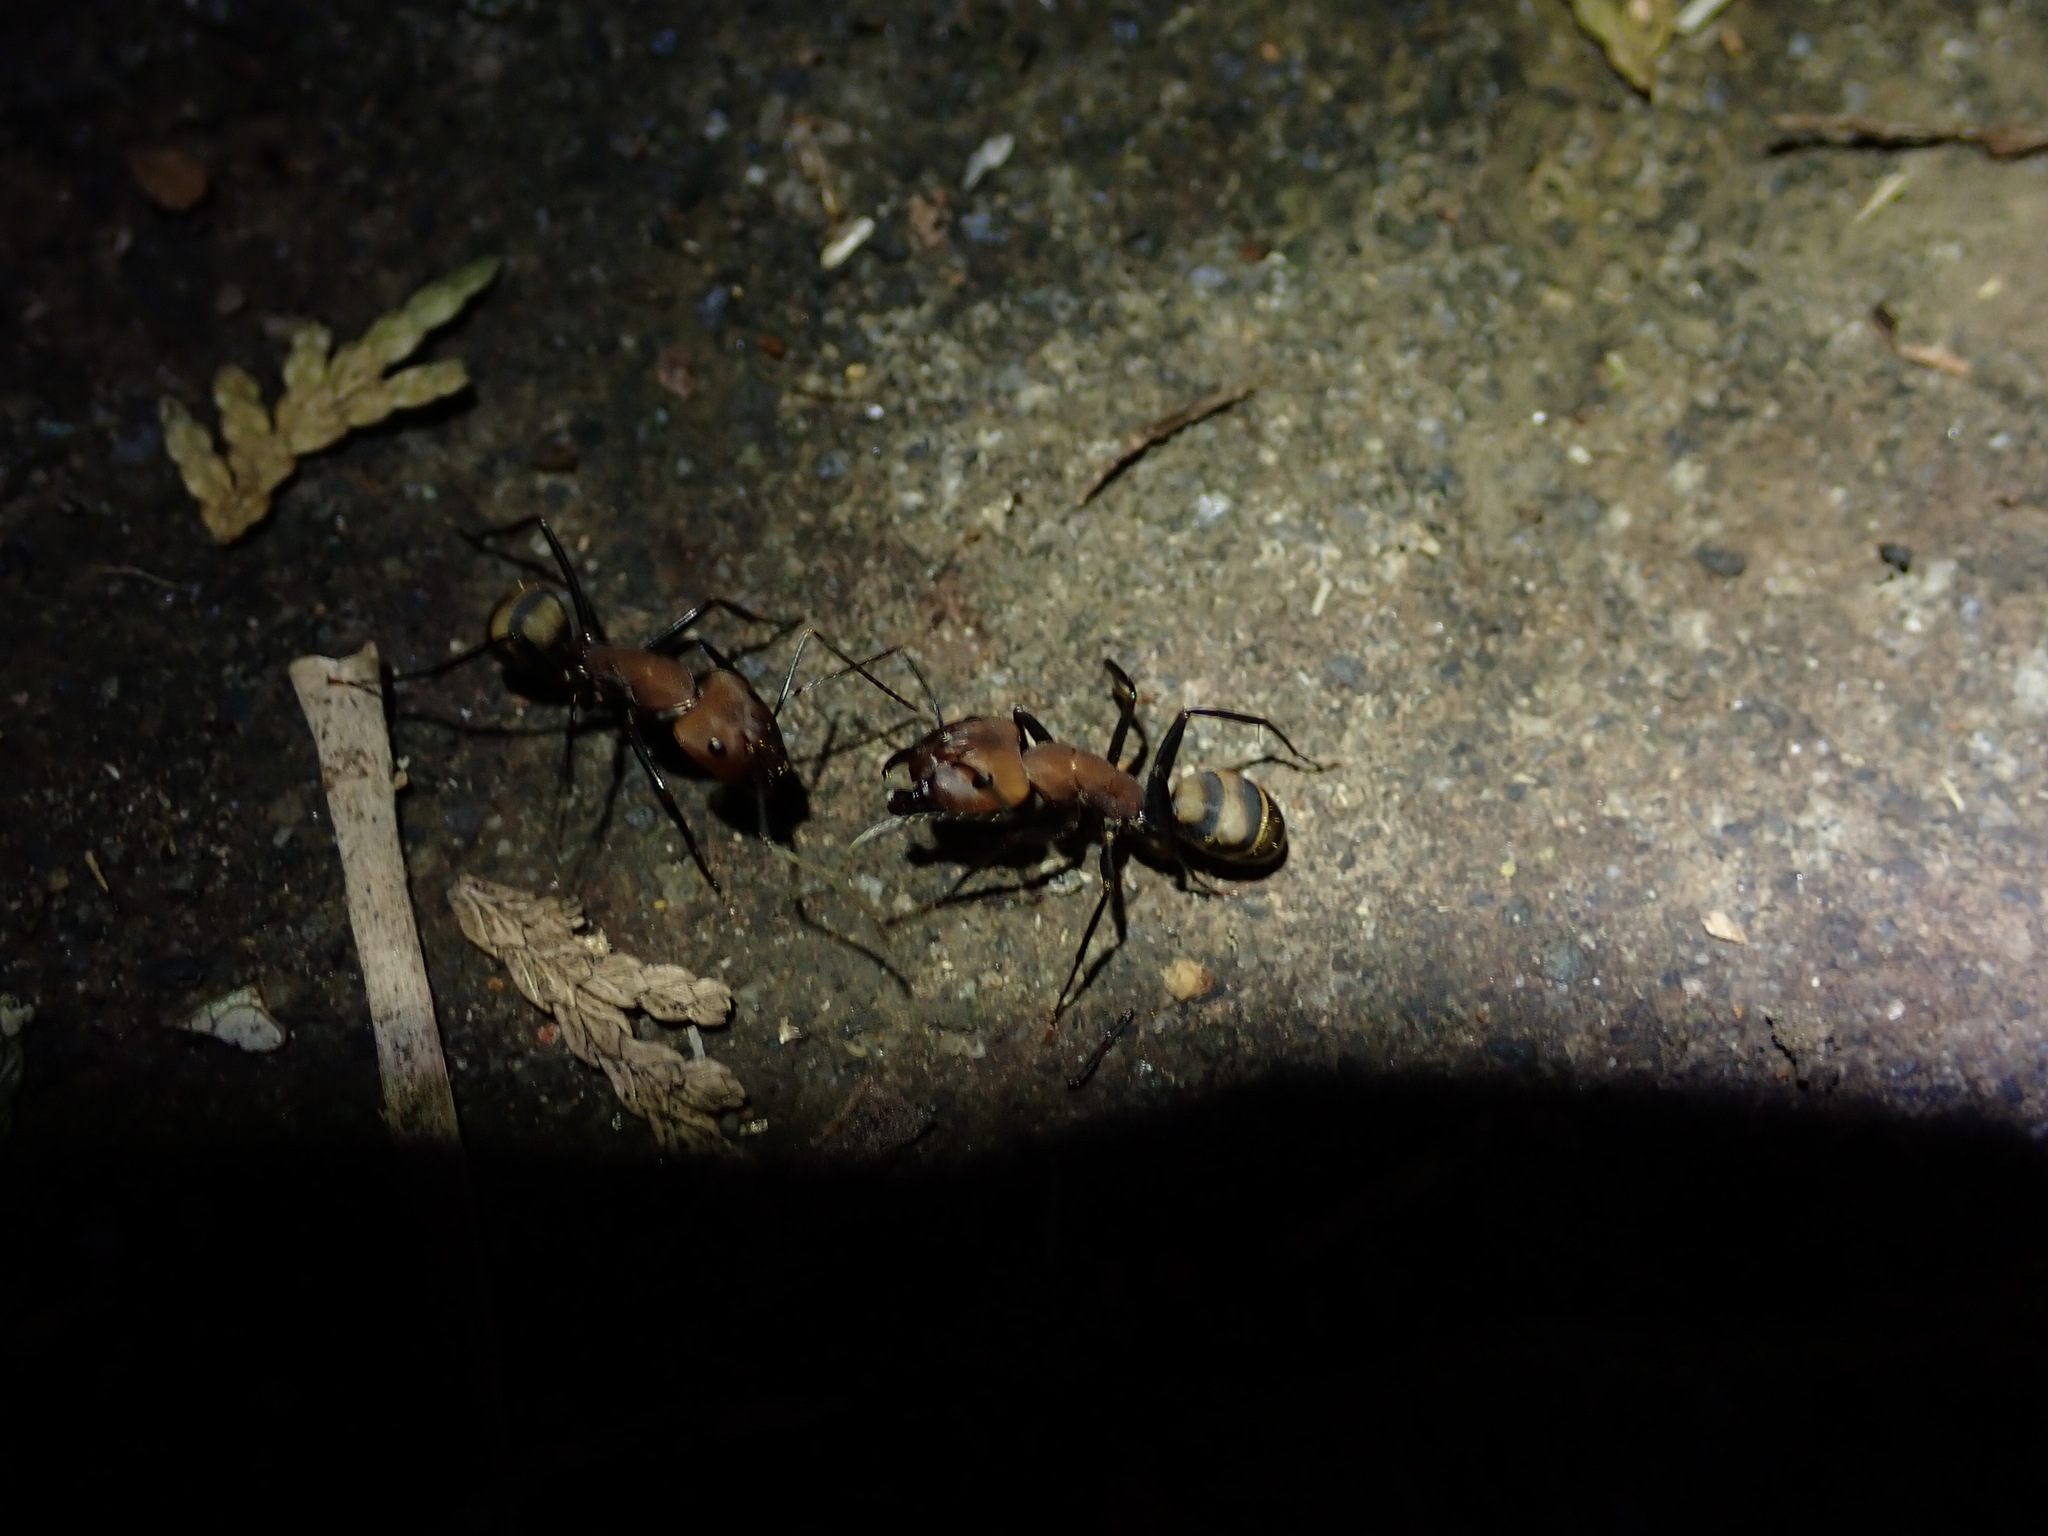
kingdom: Animalia
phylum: Arthropoda
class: Insecta
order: Hymenoptera
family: Formicidae
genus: Camponotus
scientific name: Camponotus habereri
